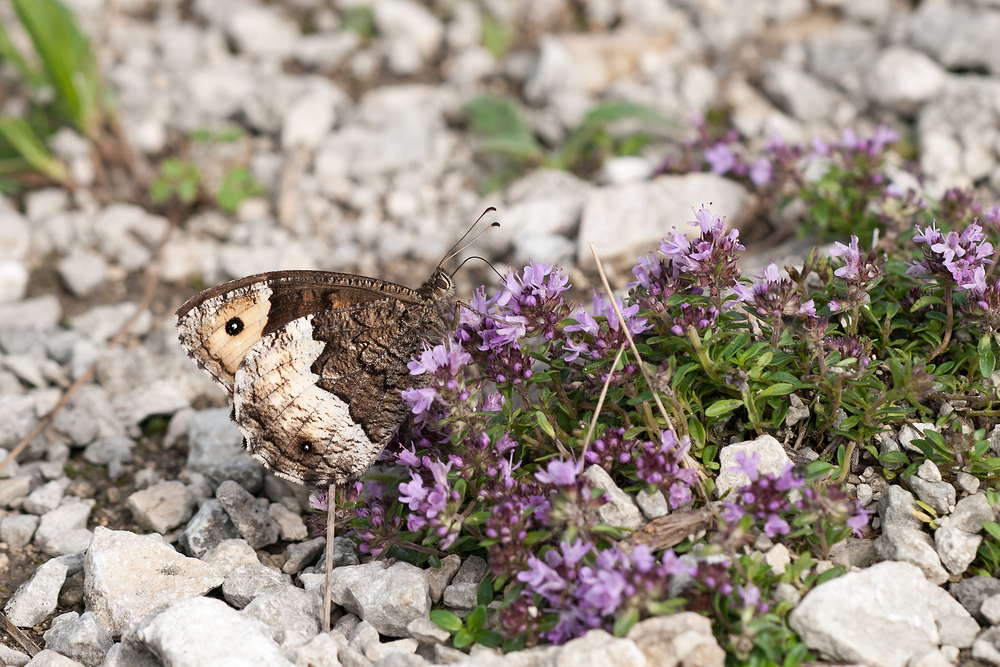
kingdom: Animalia
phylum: Arthropoda
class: Insecta
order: Lepidoptera
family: Nymphalidae
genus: Hipparchia
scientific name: Hipparchia hermione
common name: Rock grayling
